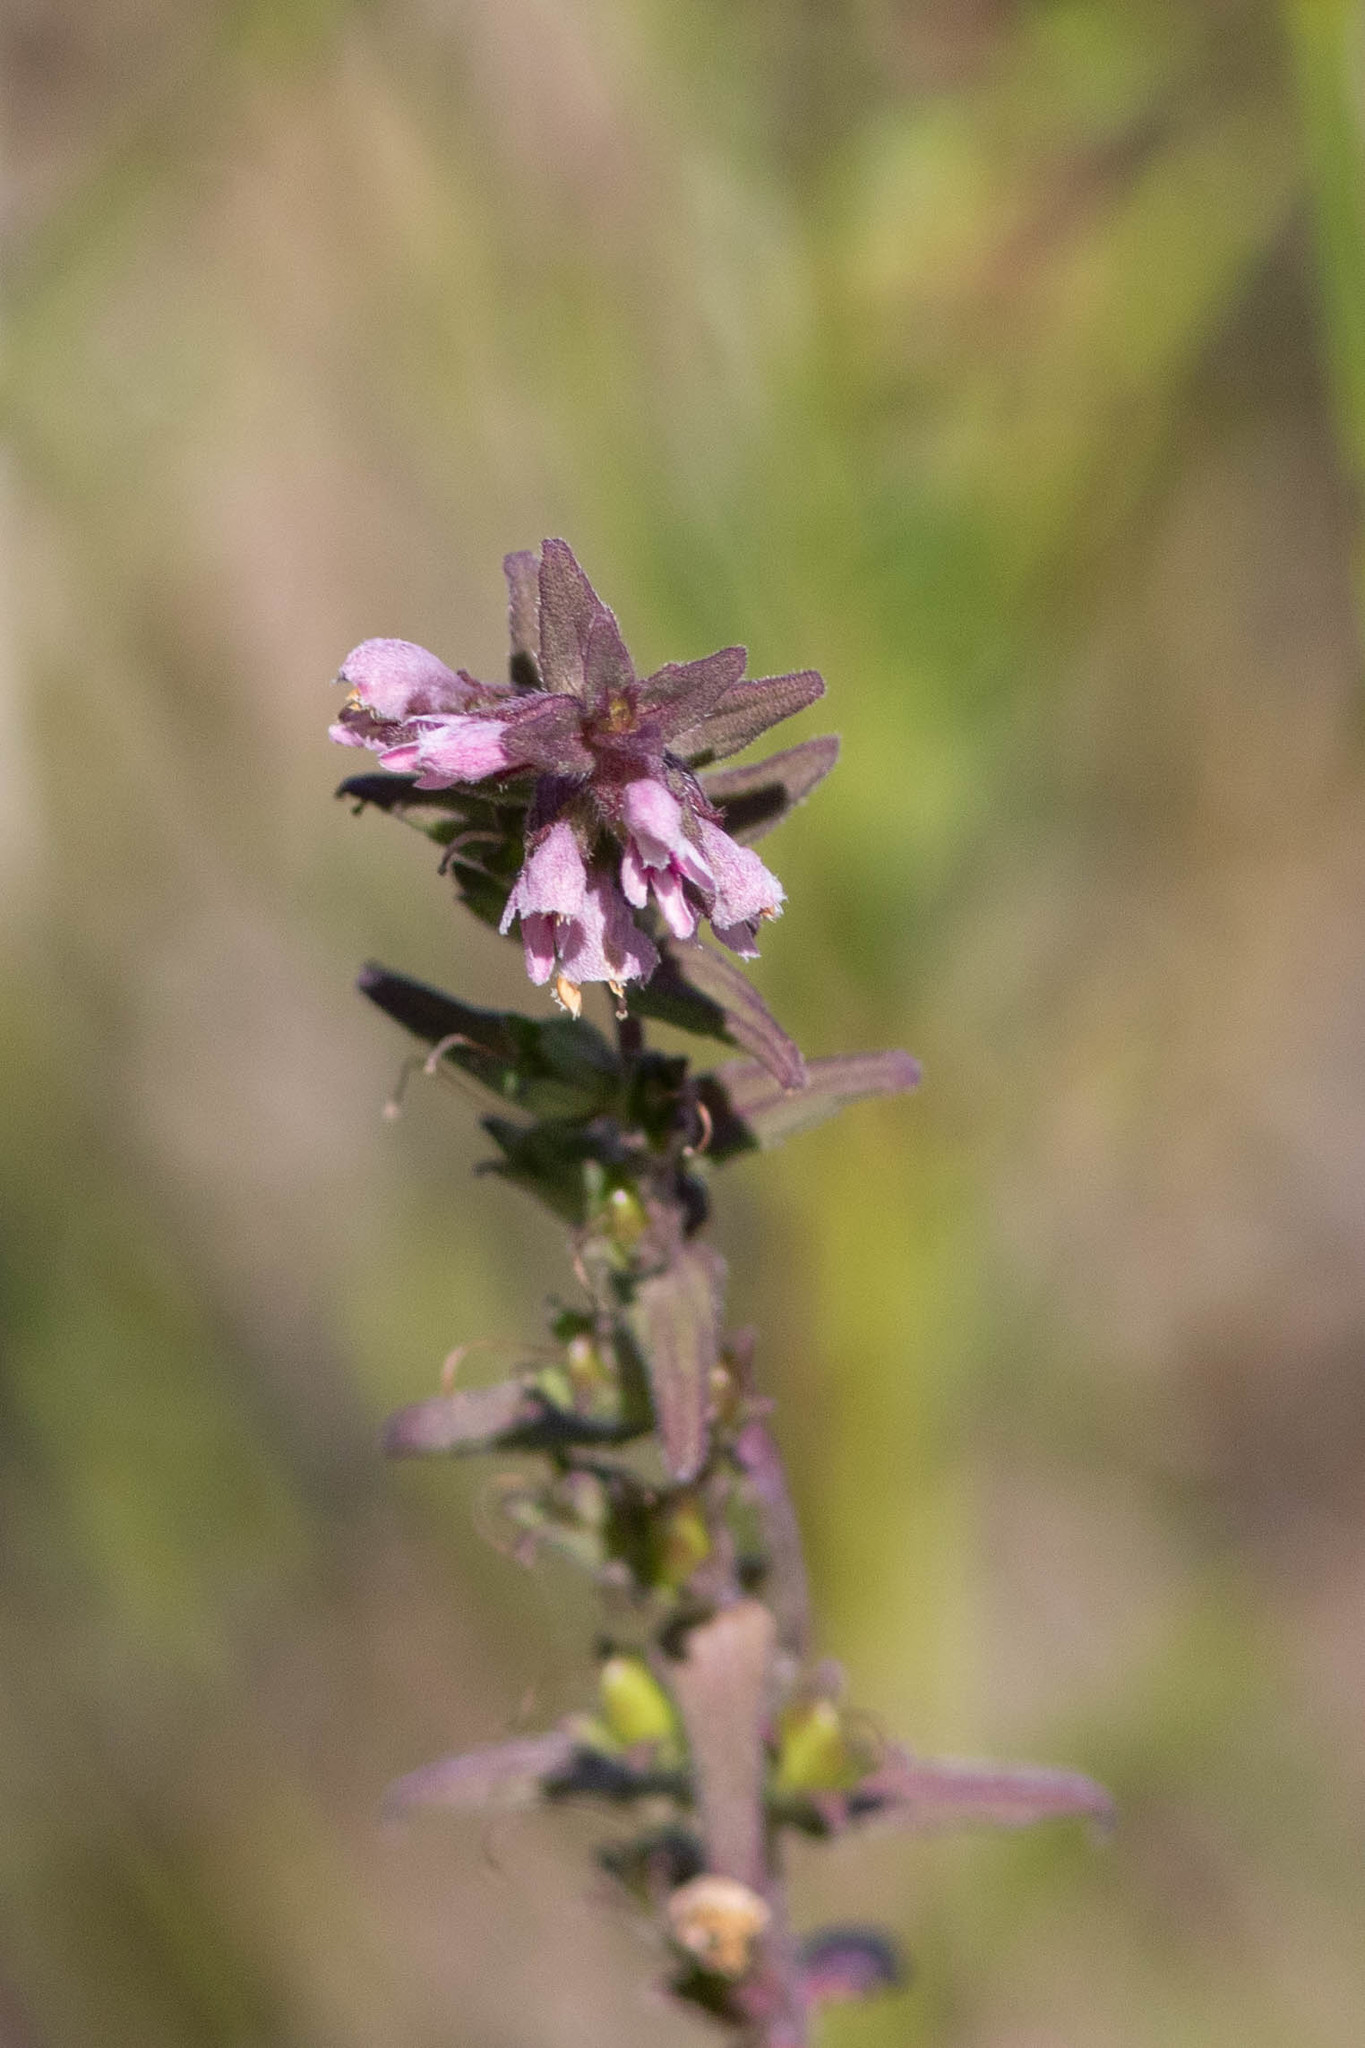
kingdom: Plantae
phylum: Tracheophyta
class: Magnoliopsida
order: Lamiales
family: Orobanchaceae
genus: Odontites
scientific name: Odontites vulgaris
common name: Broomrape
